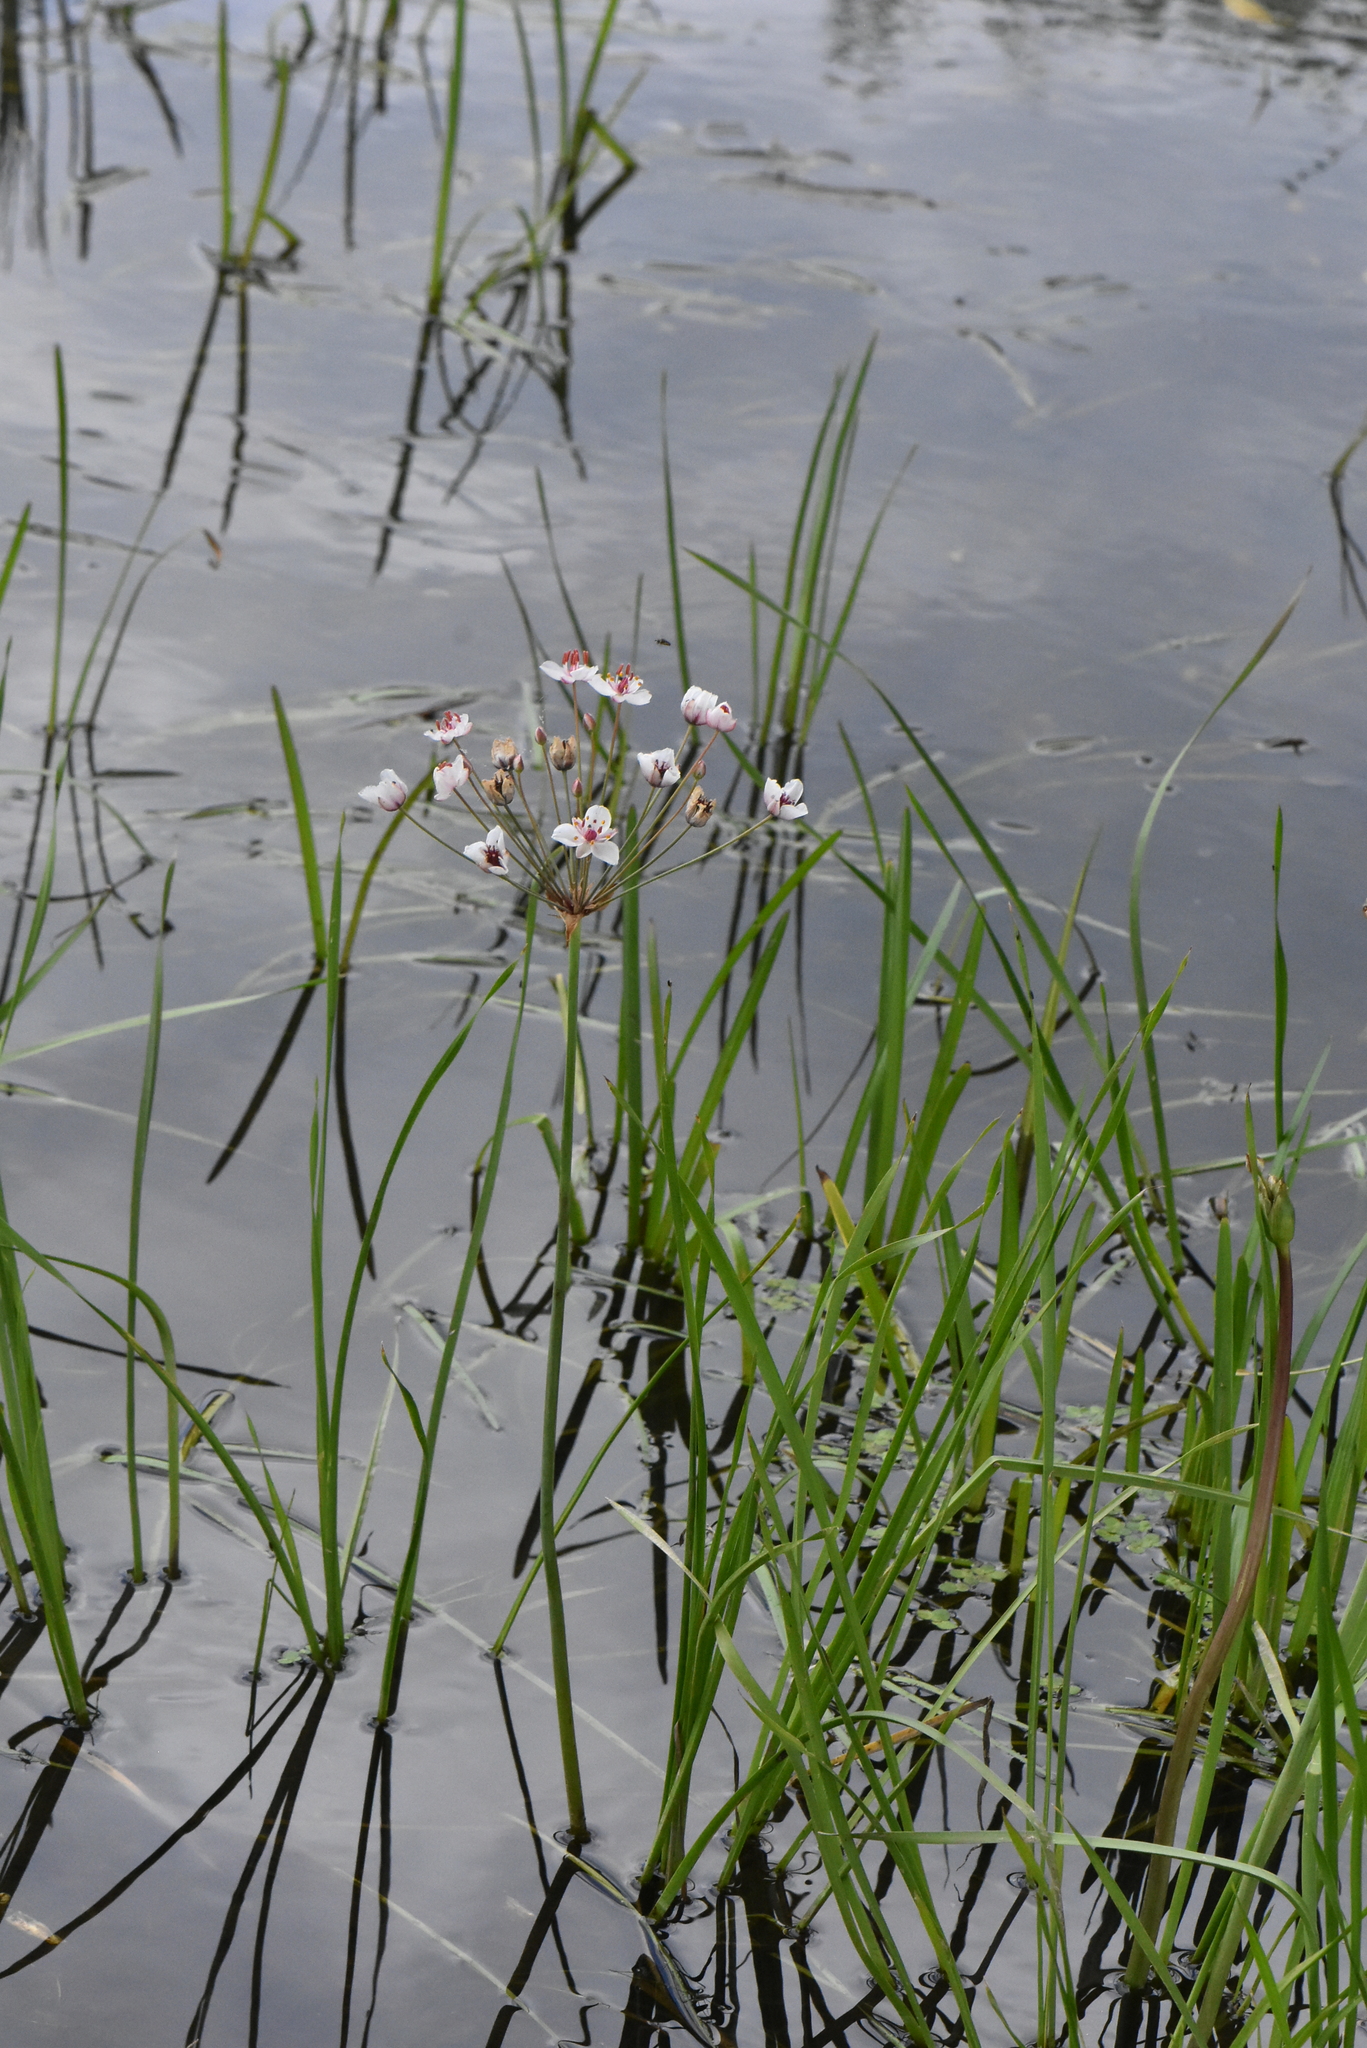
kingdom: Plantae
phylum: Tracheophyta
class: Liliopsida
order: Alismatales
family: Butomaceae
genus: Butomus
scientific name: Butomus umbellatus
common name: Flowering-rush
